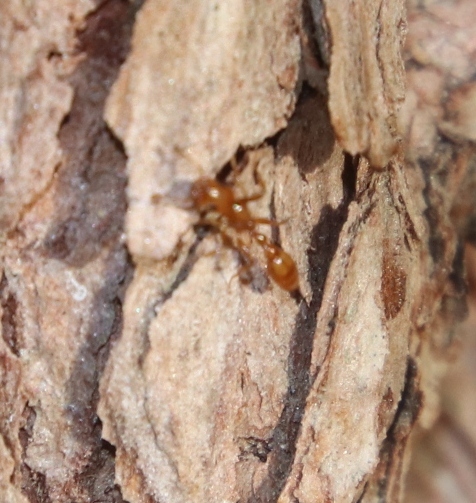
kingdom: Animalia
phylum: Arthropoda
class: Insecta
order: Hymenoptera
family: Formicidae
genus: Tetraponera
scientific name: Tetraponera emeryi
